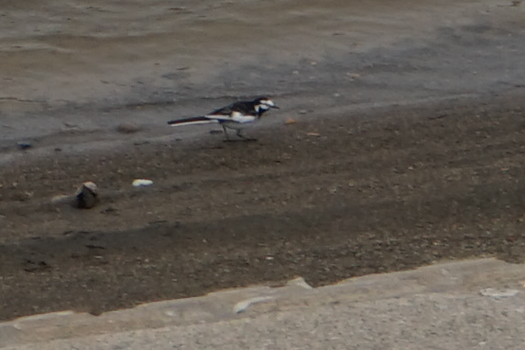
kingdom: Animalia
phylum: Chordata
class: Aves
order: Passeriformes
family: Motacillidae
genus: Motacilla
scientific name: Motacilla alba
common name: White wagtail
